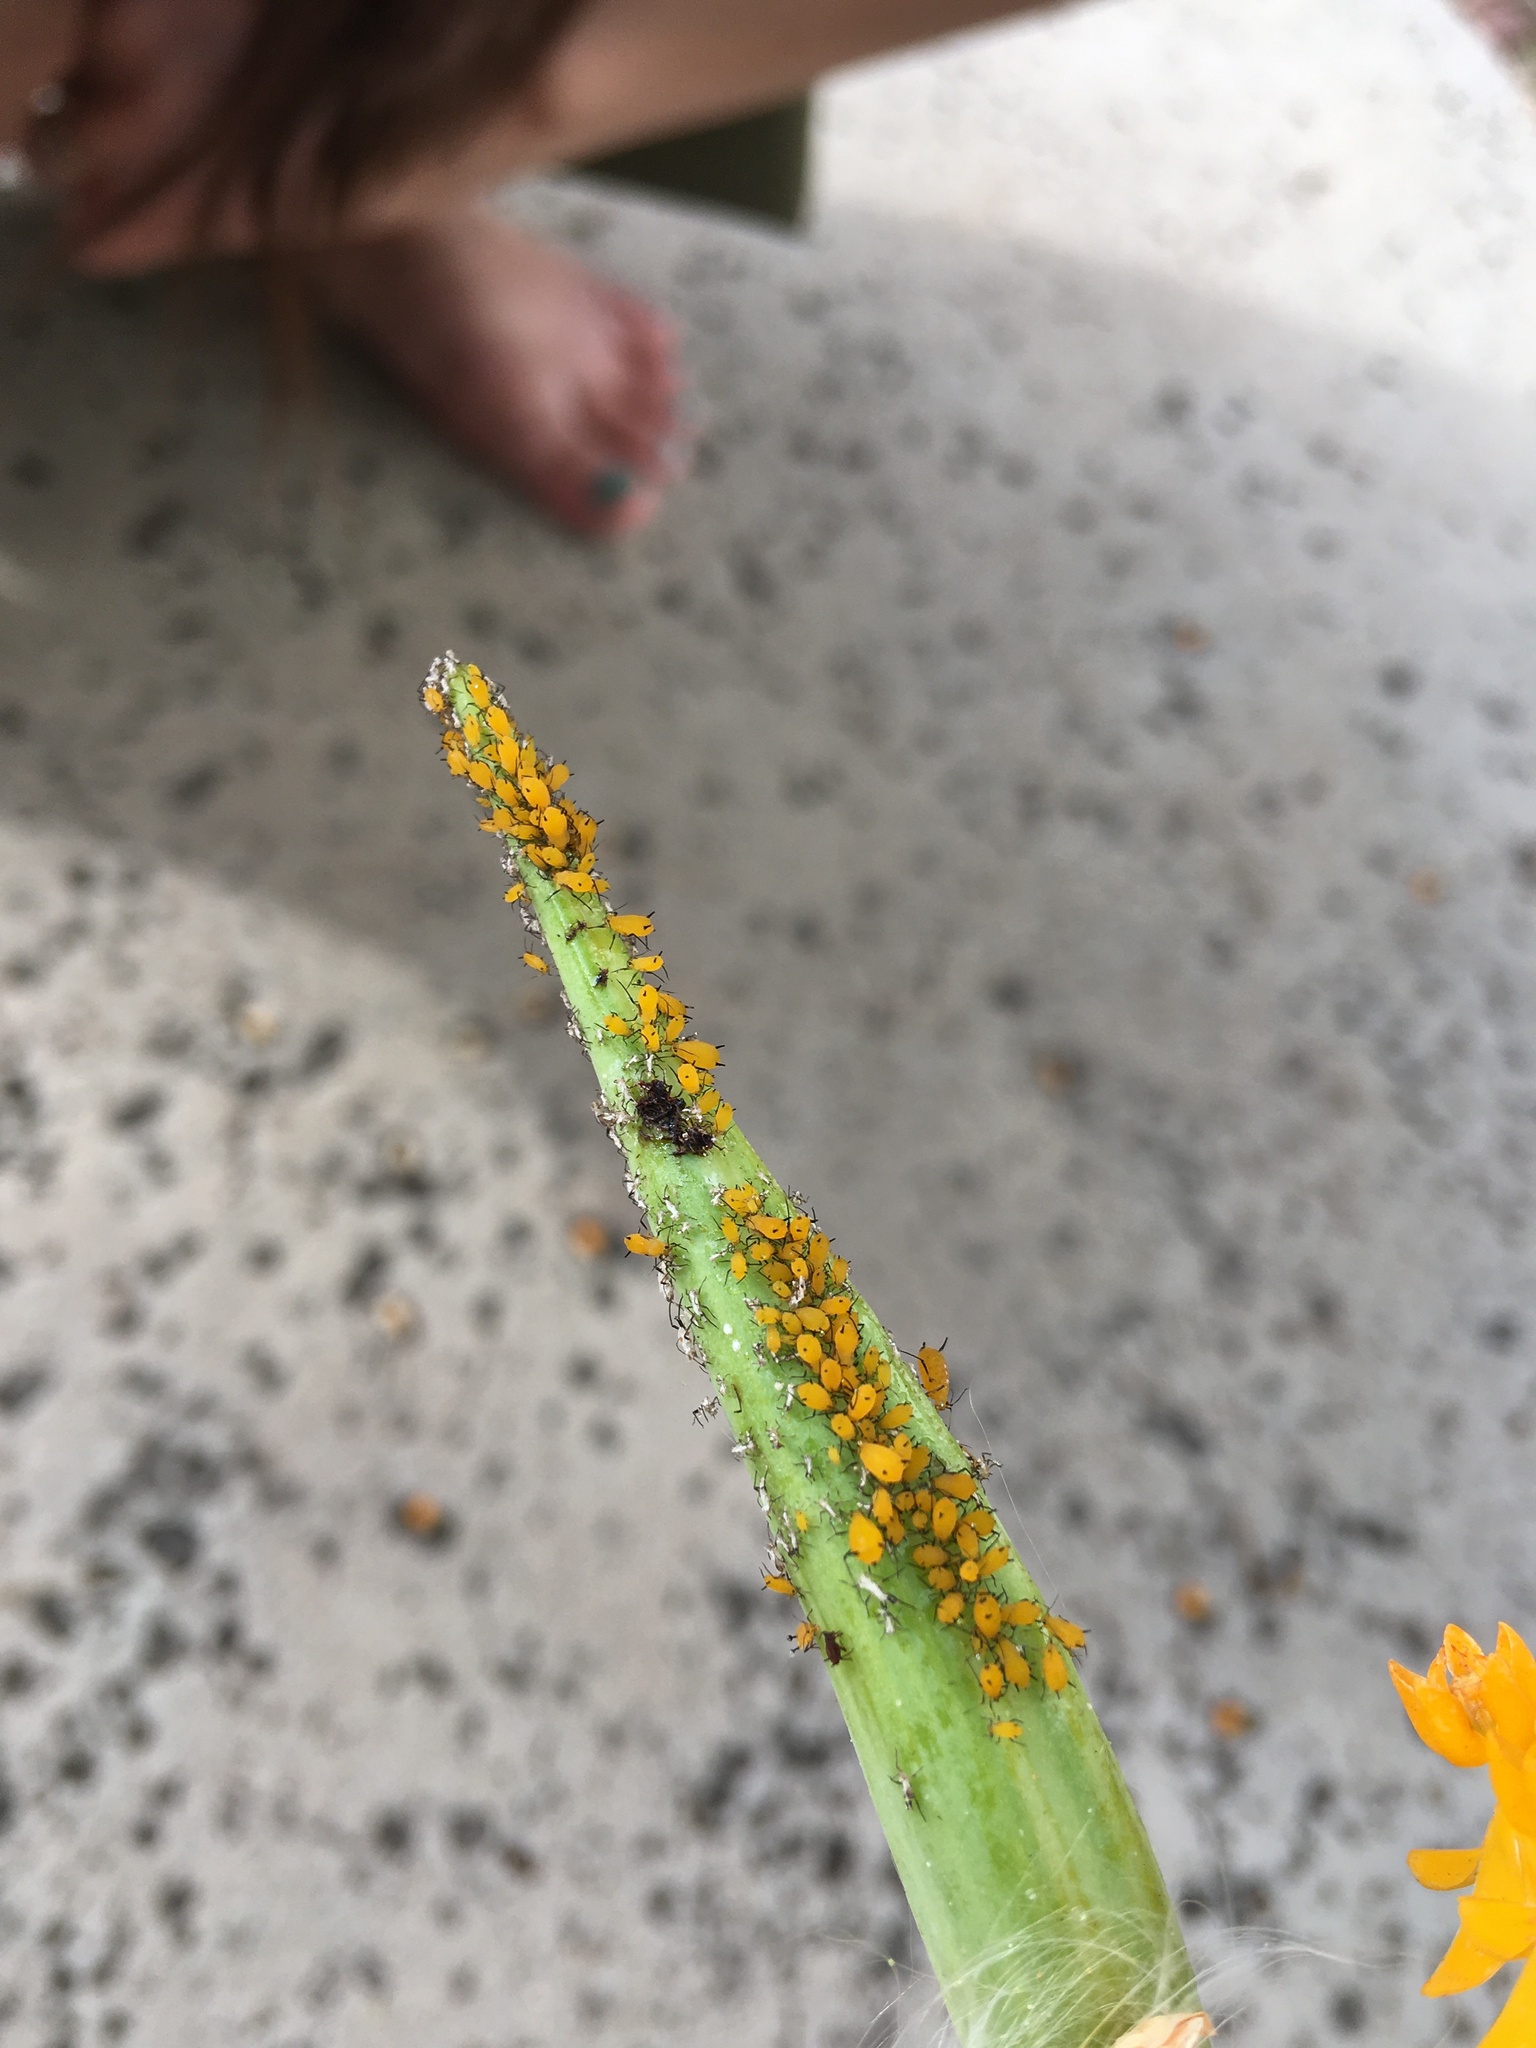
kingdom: Animalia
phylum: Arthropoda
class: Insecta
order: Hemiptera
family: Aphididae
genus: Aphis
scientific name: Aphis nerii
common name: Oleander aphid
